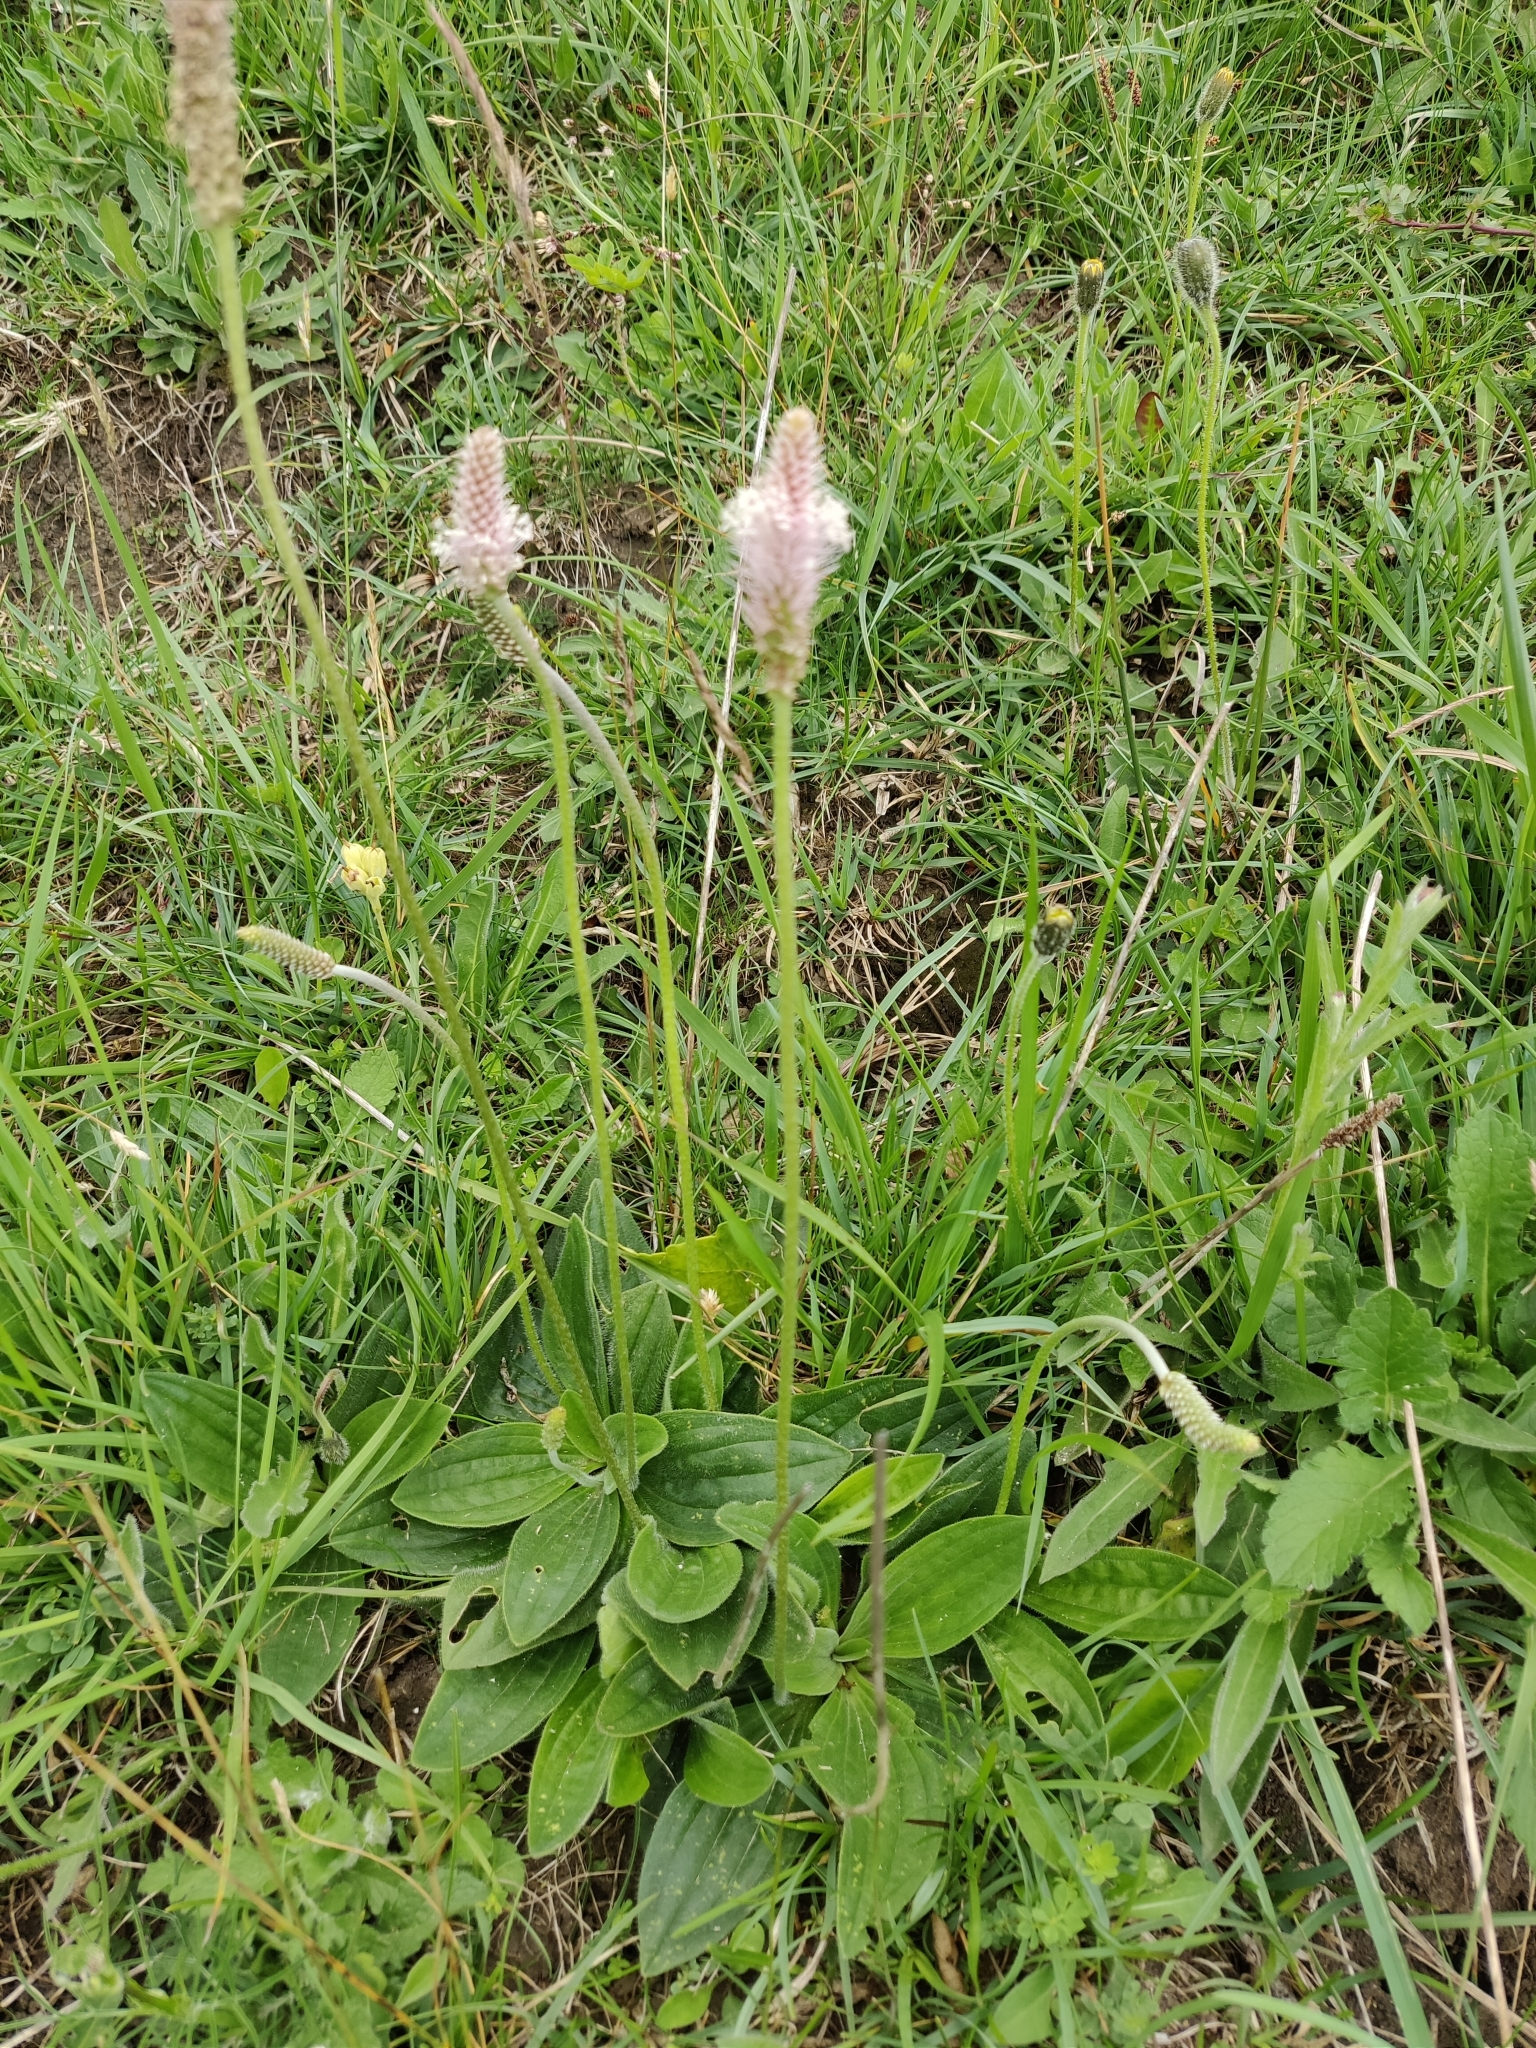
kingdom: Plantae
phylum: Tracheophyta
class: Magnoliopsida
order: Lamiales
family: Plantaginaceae
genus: Plantago
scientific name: Plantago media
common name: Hoary plantain
